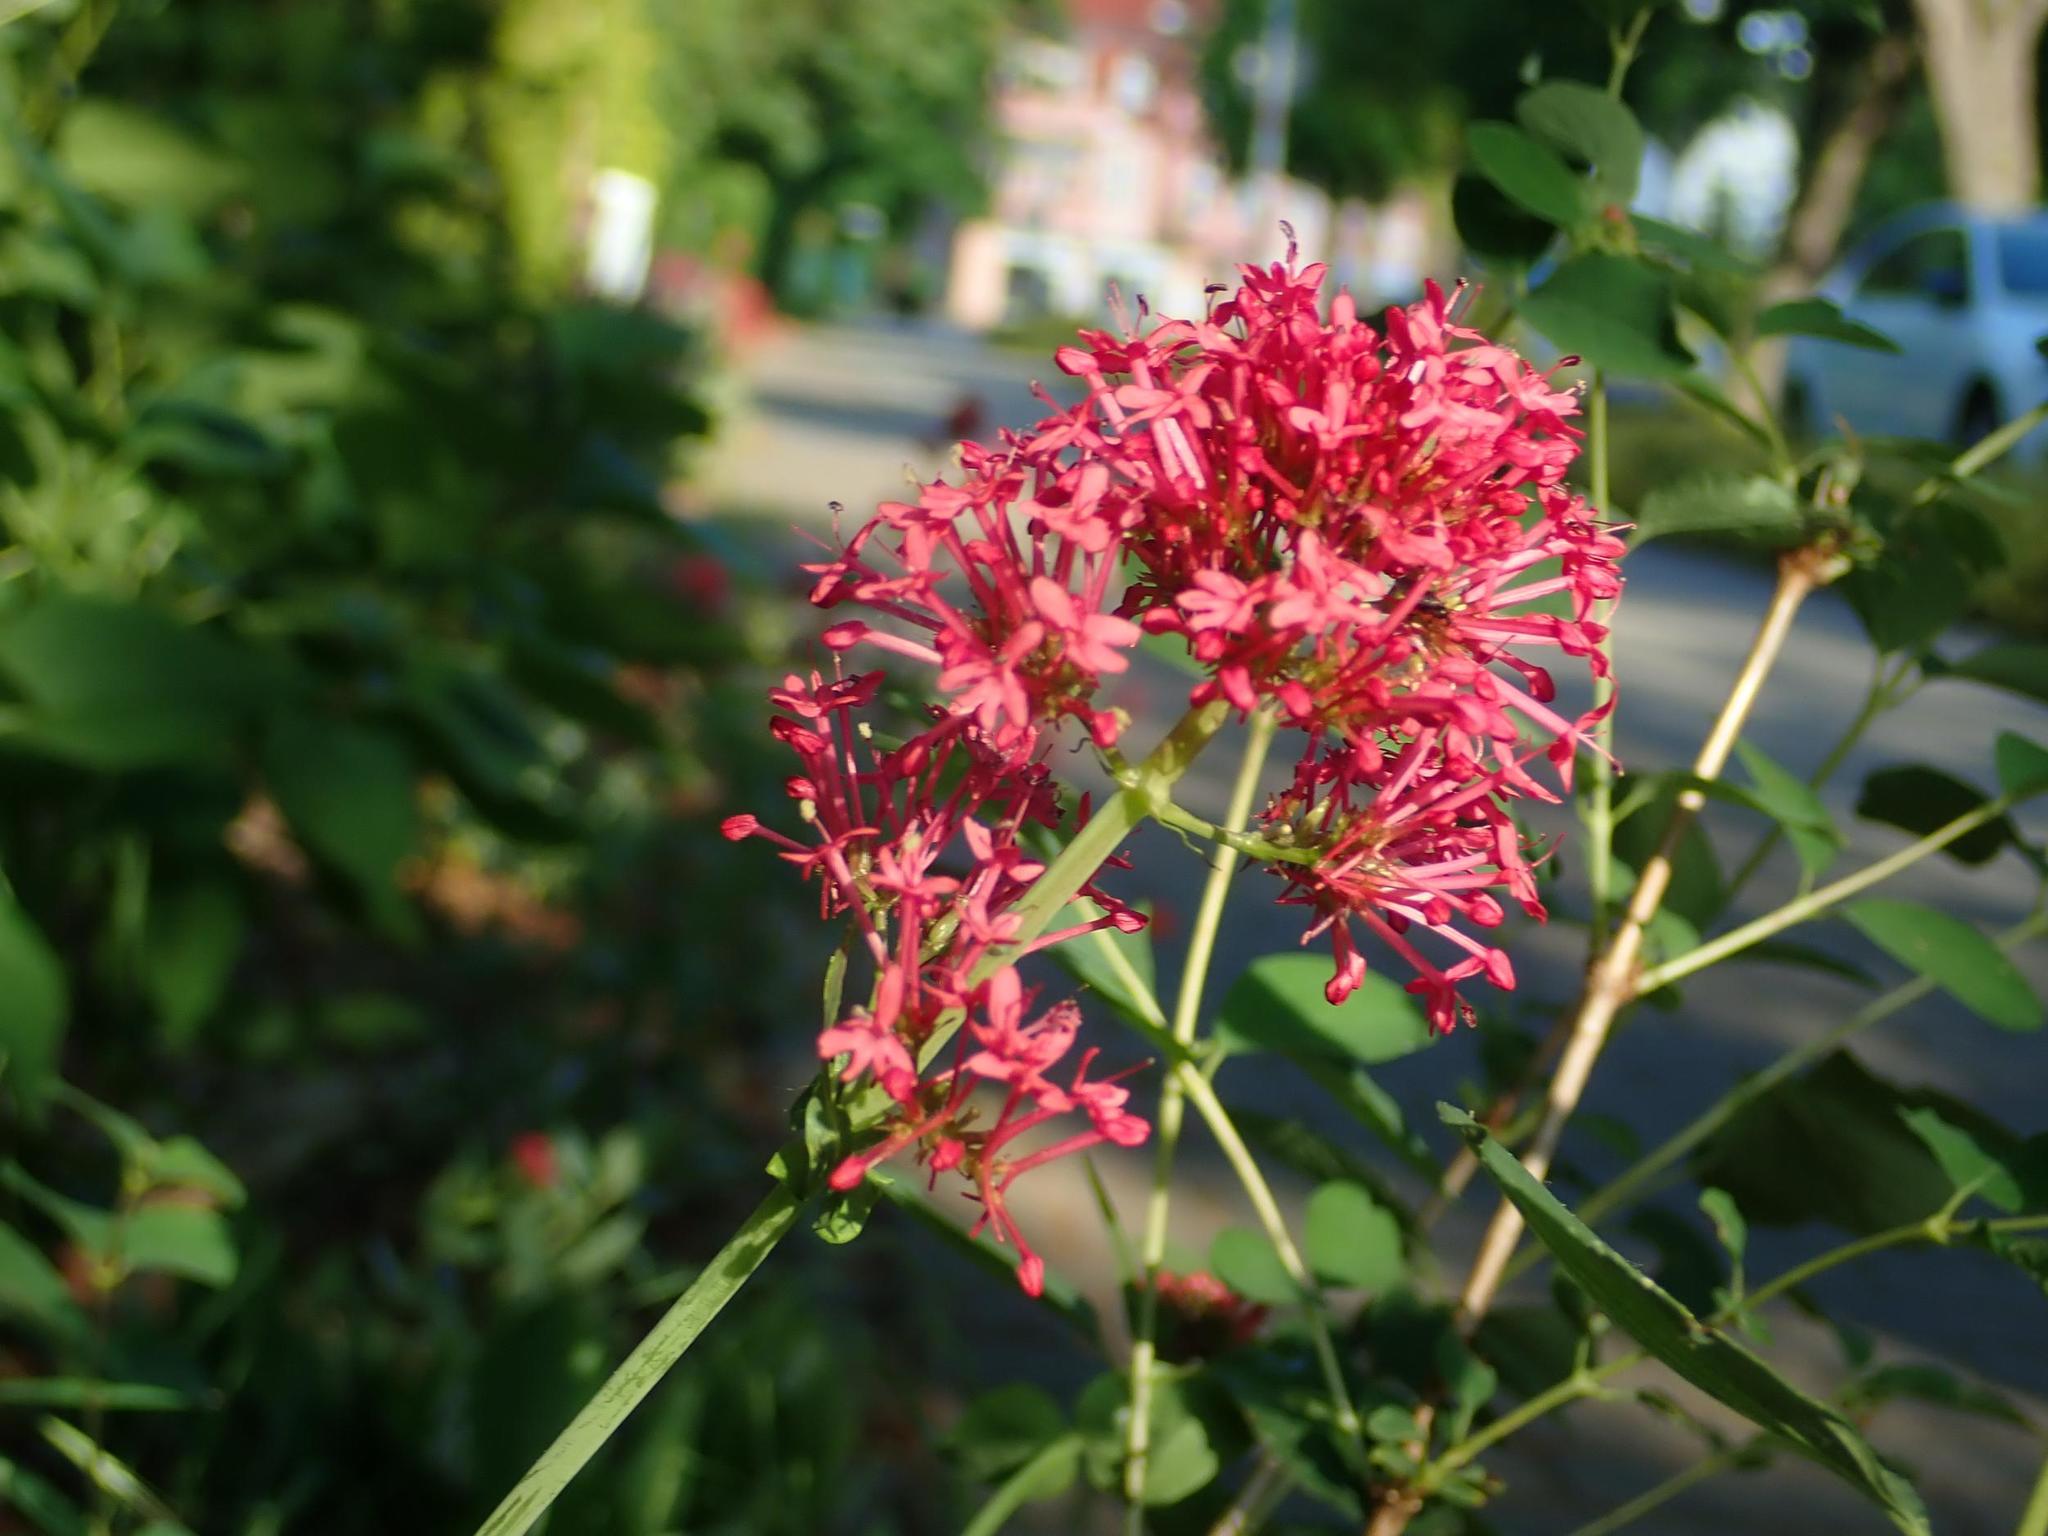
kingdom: Plantae
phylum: Tracheophyta
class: Magnoliopsida
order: Dipsacales
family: Caprifoliaceae
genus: Centranthus
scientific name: Centranthus ruber
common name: Red valerian
